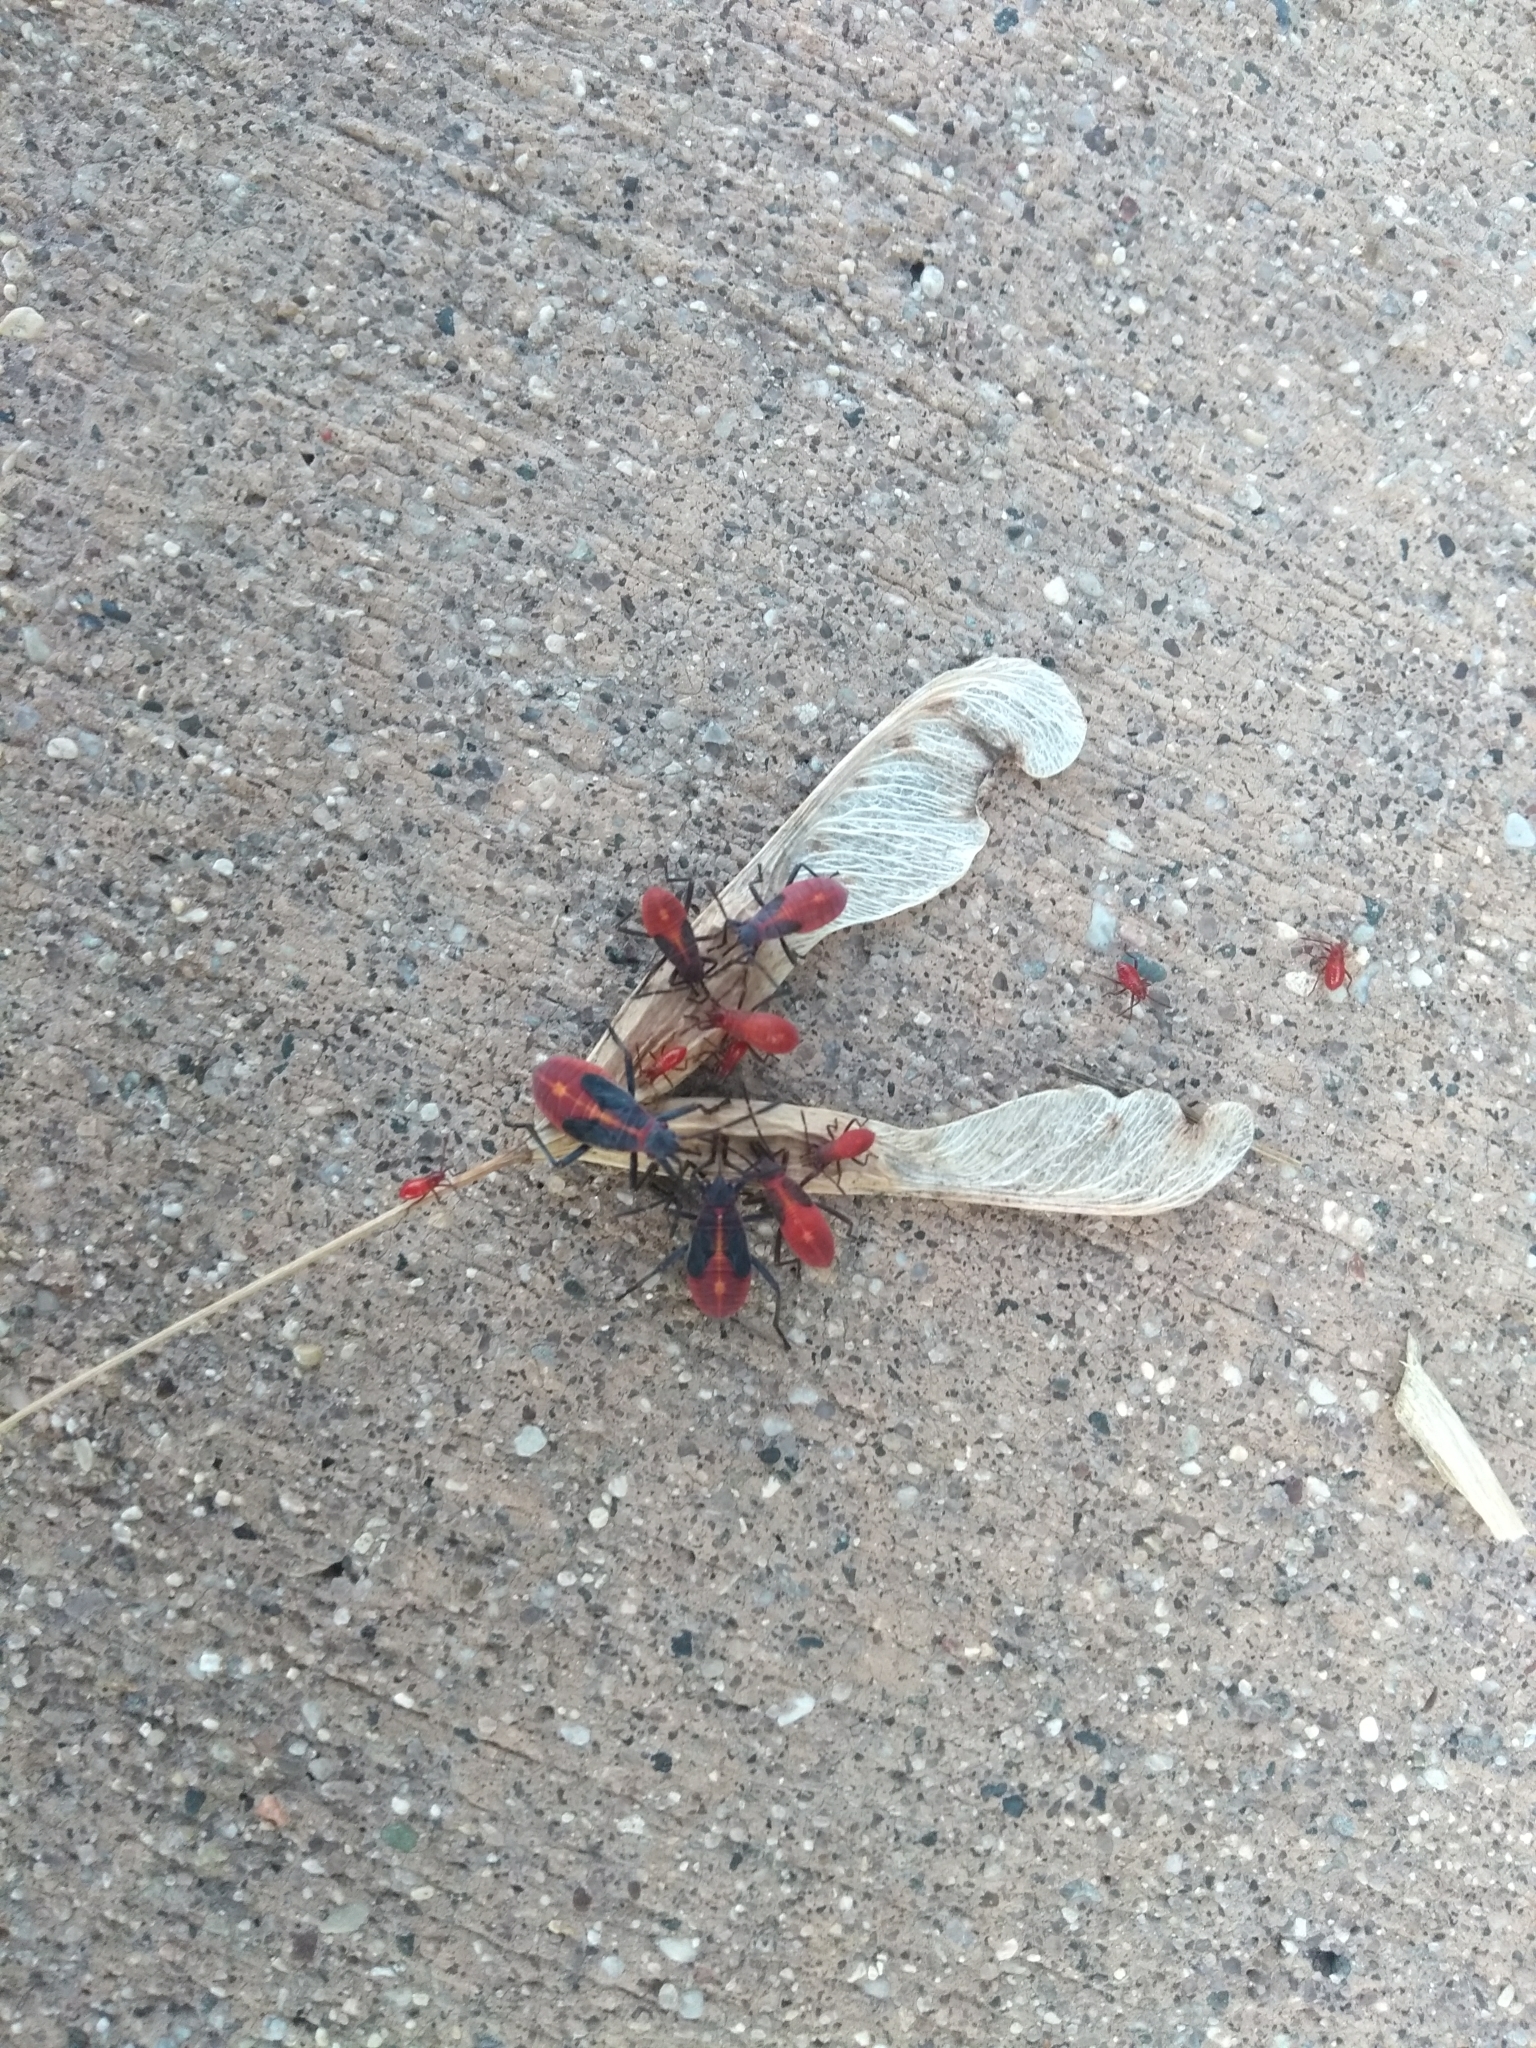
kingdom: Animalia
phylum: Arthropoda
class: Insecta
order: Hemiptera
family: Rhopalidae
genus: Boisea
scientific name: Boisea trivittata
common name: Boxelder bug
